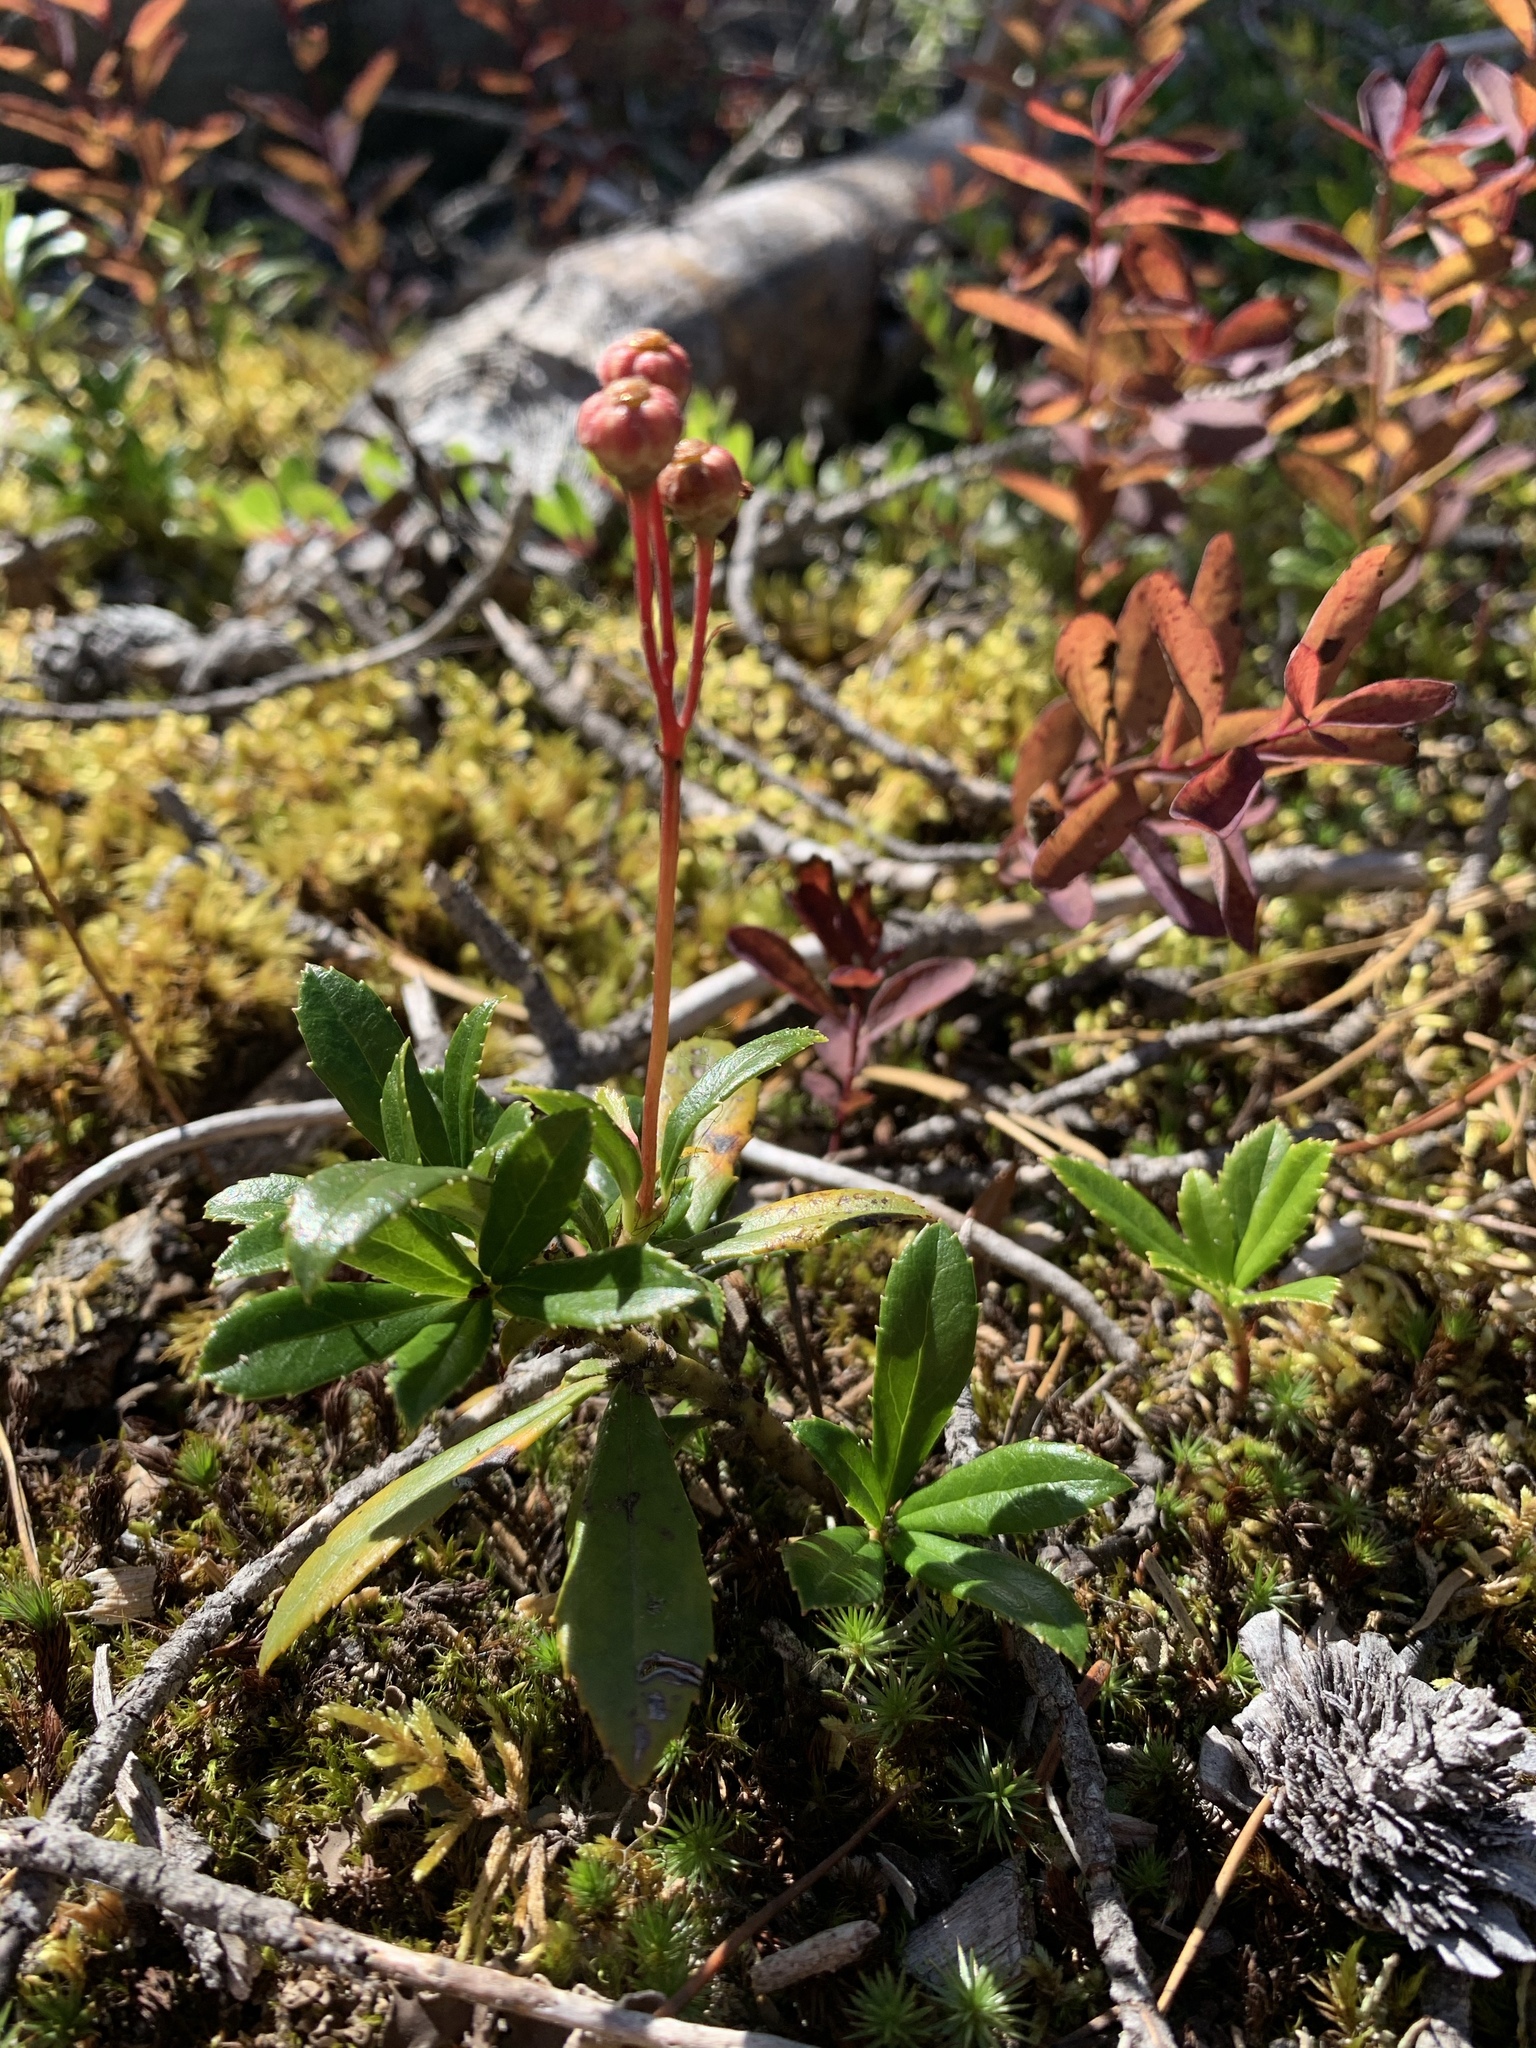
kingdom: Plantae
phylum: Tracheophyta
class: Magnoliopsida
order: Ericales
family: Ericaceae
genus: Chimaphila
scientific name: Chimaphila umbellata
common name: Pipsissewa
